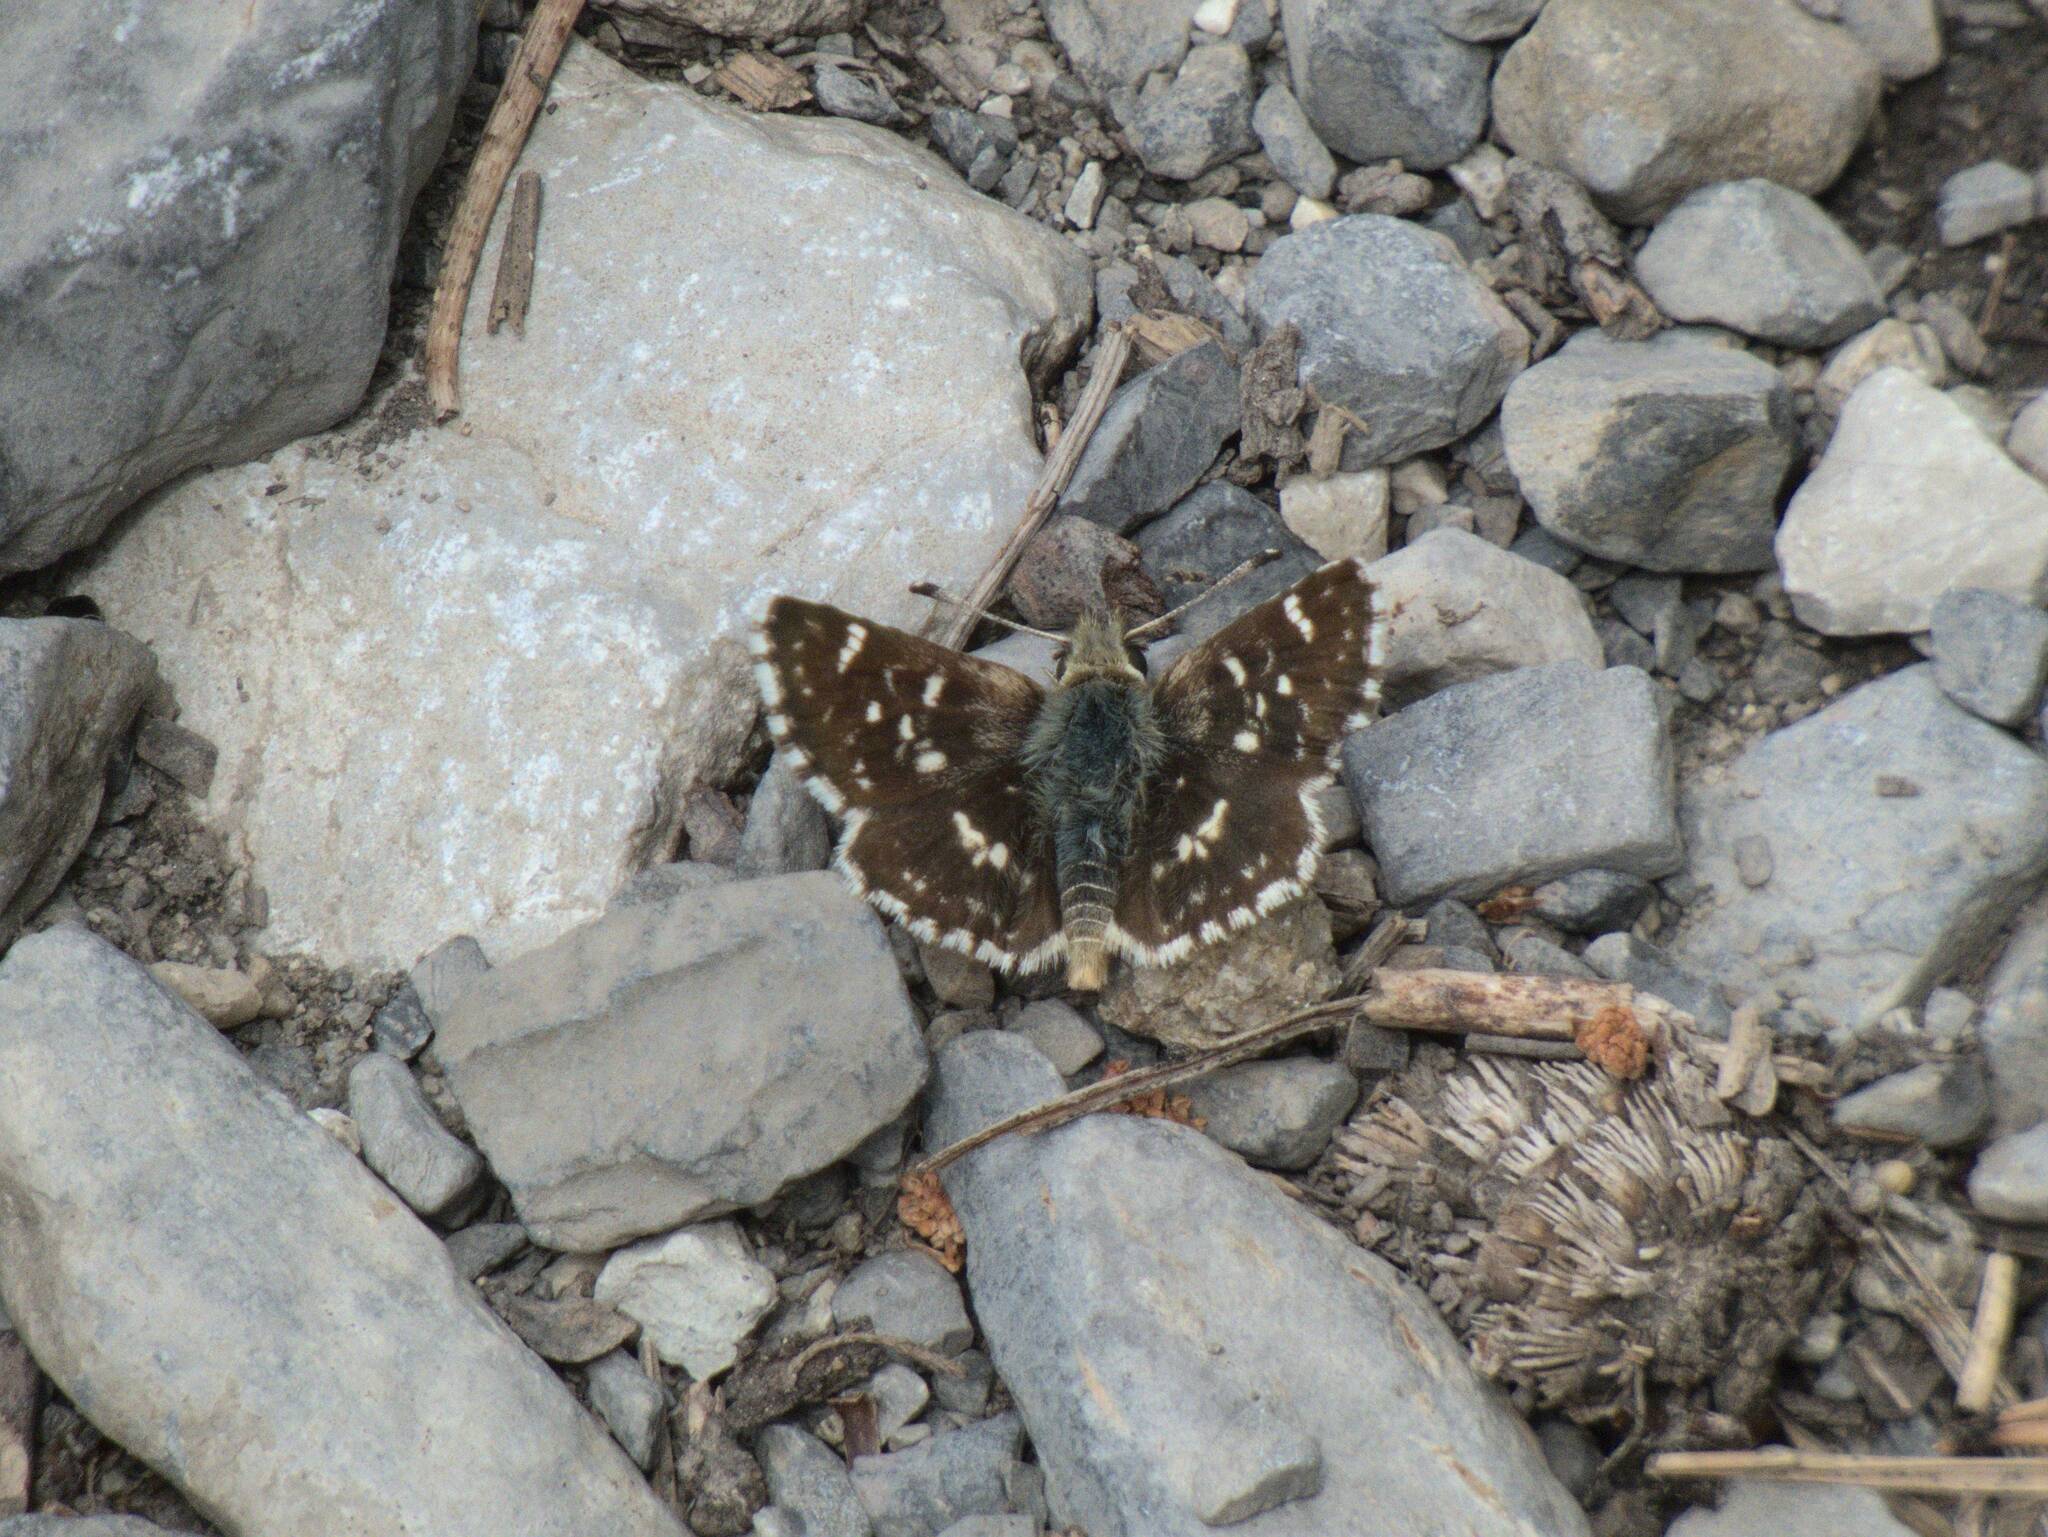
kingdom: Animalia
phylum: Arthropoda
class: Insecta
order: Lepidoptera
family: Hesperiidae
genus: Spialia
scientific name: Spialia sertorius
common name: Red underwing skipper
